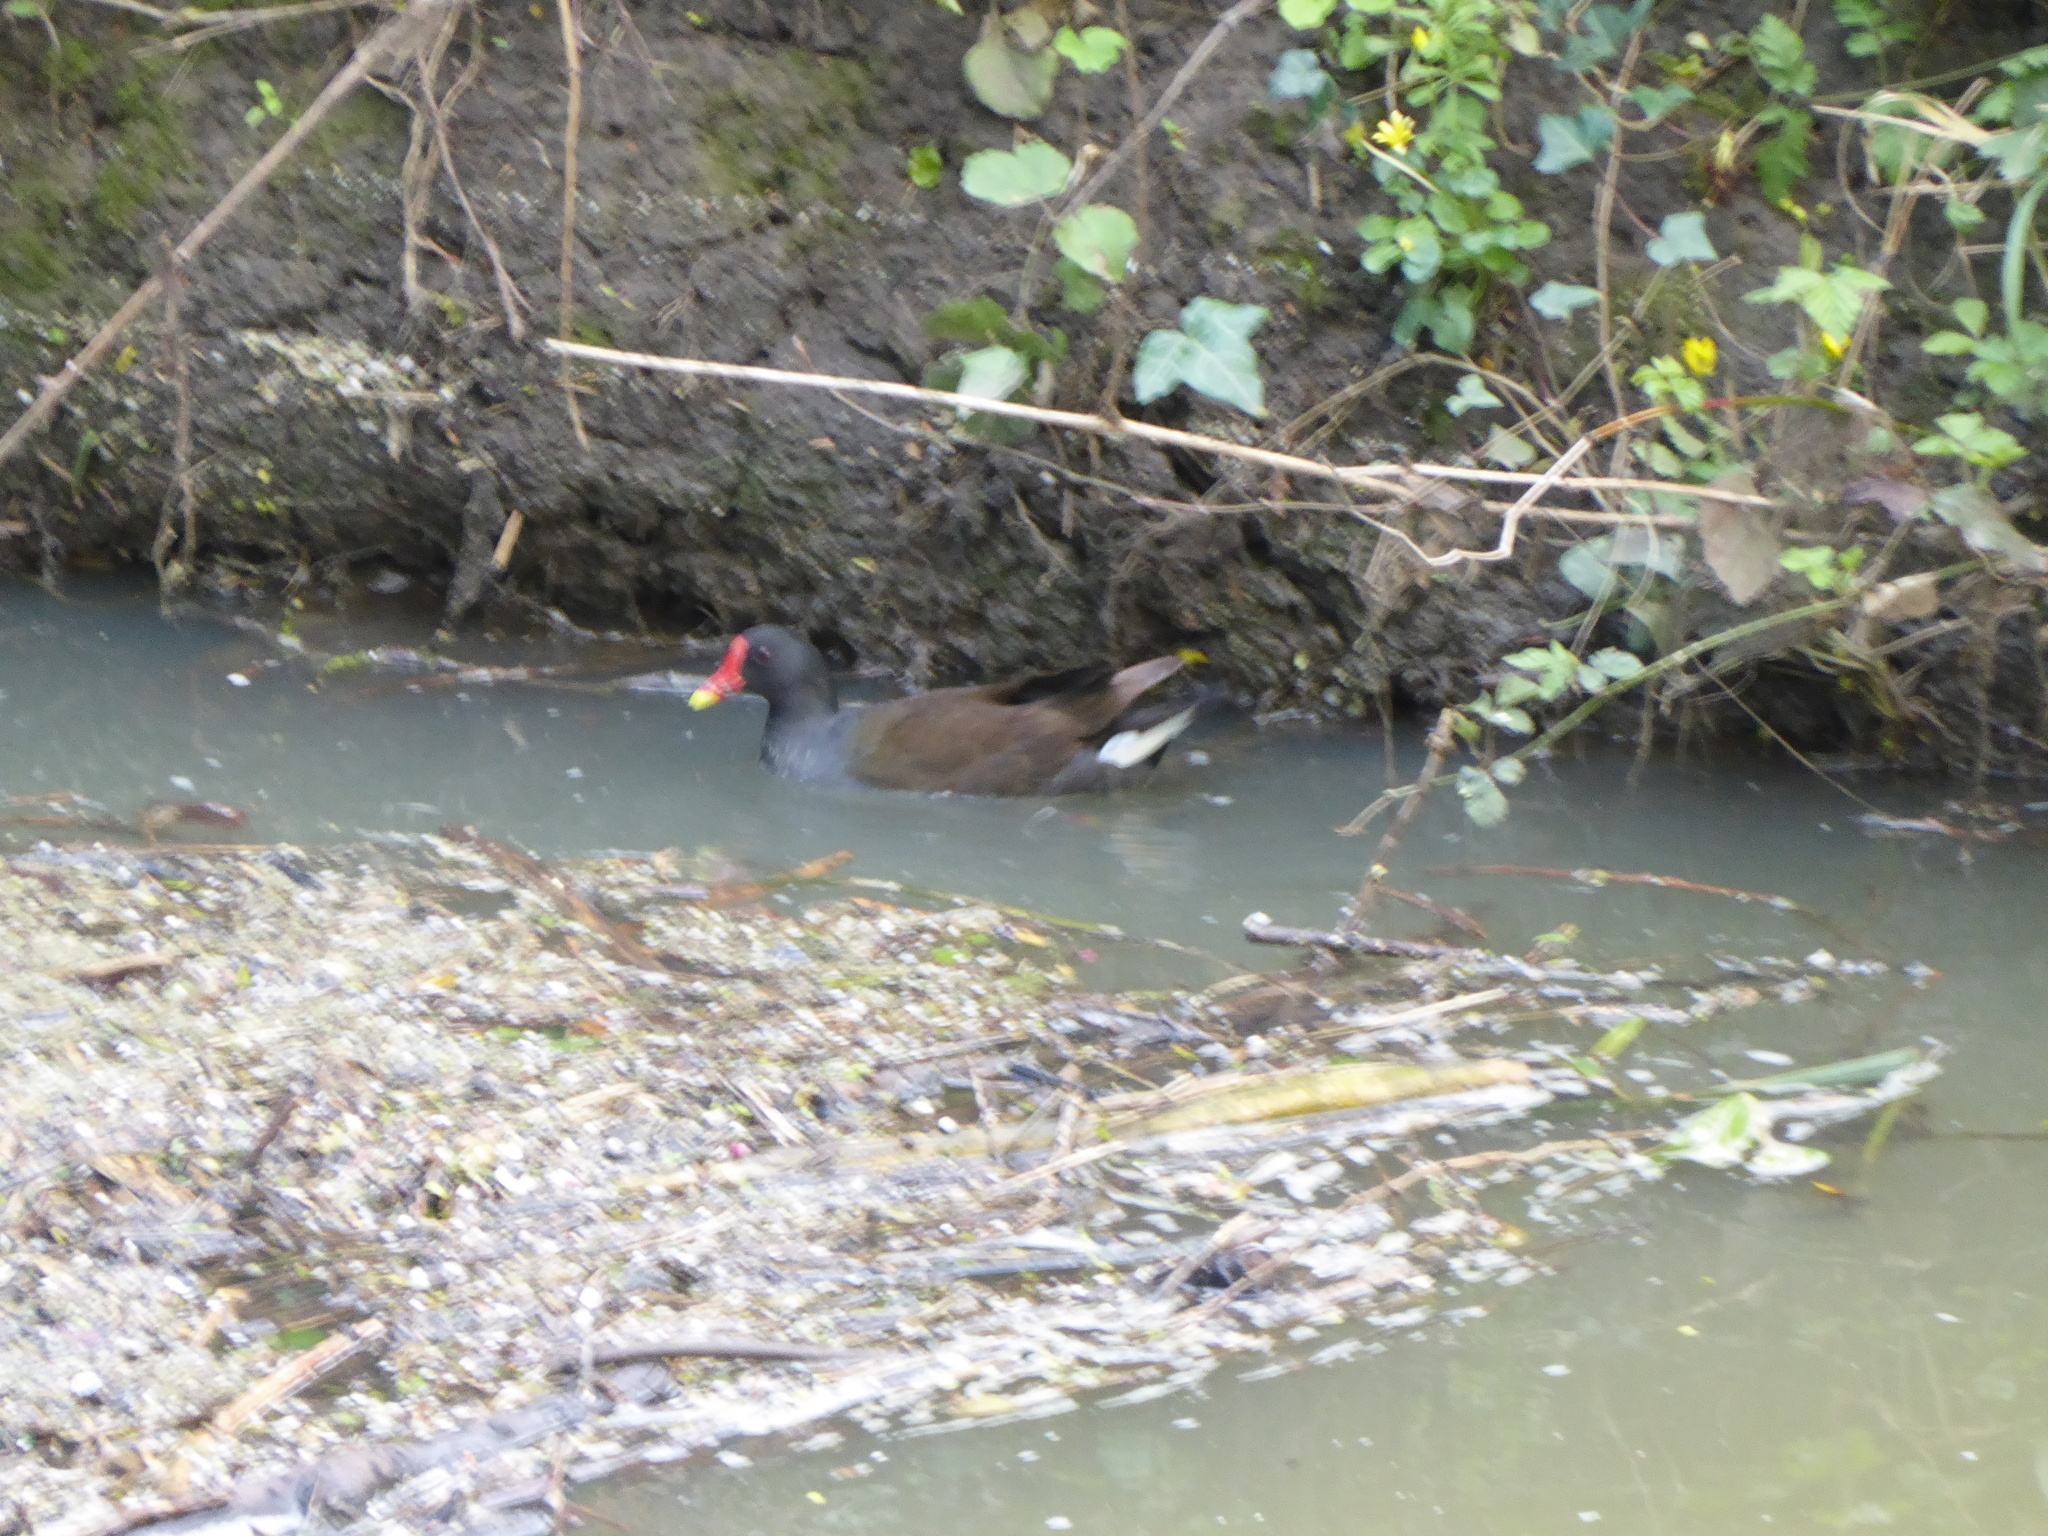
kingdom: Animalia
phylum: Chordata
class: Aves
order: Gruiformes
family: Rallidae
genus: Gallinula
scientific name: Gallinula chloropus
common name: Common moorhen
